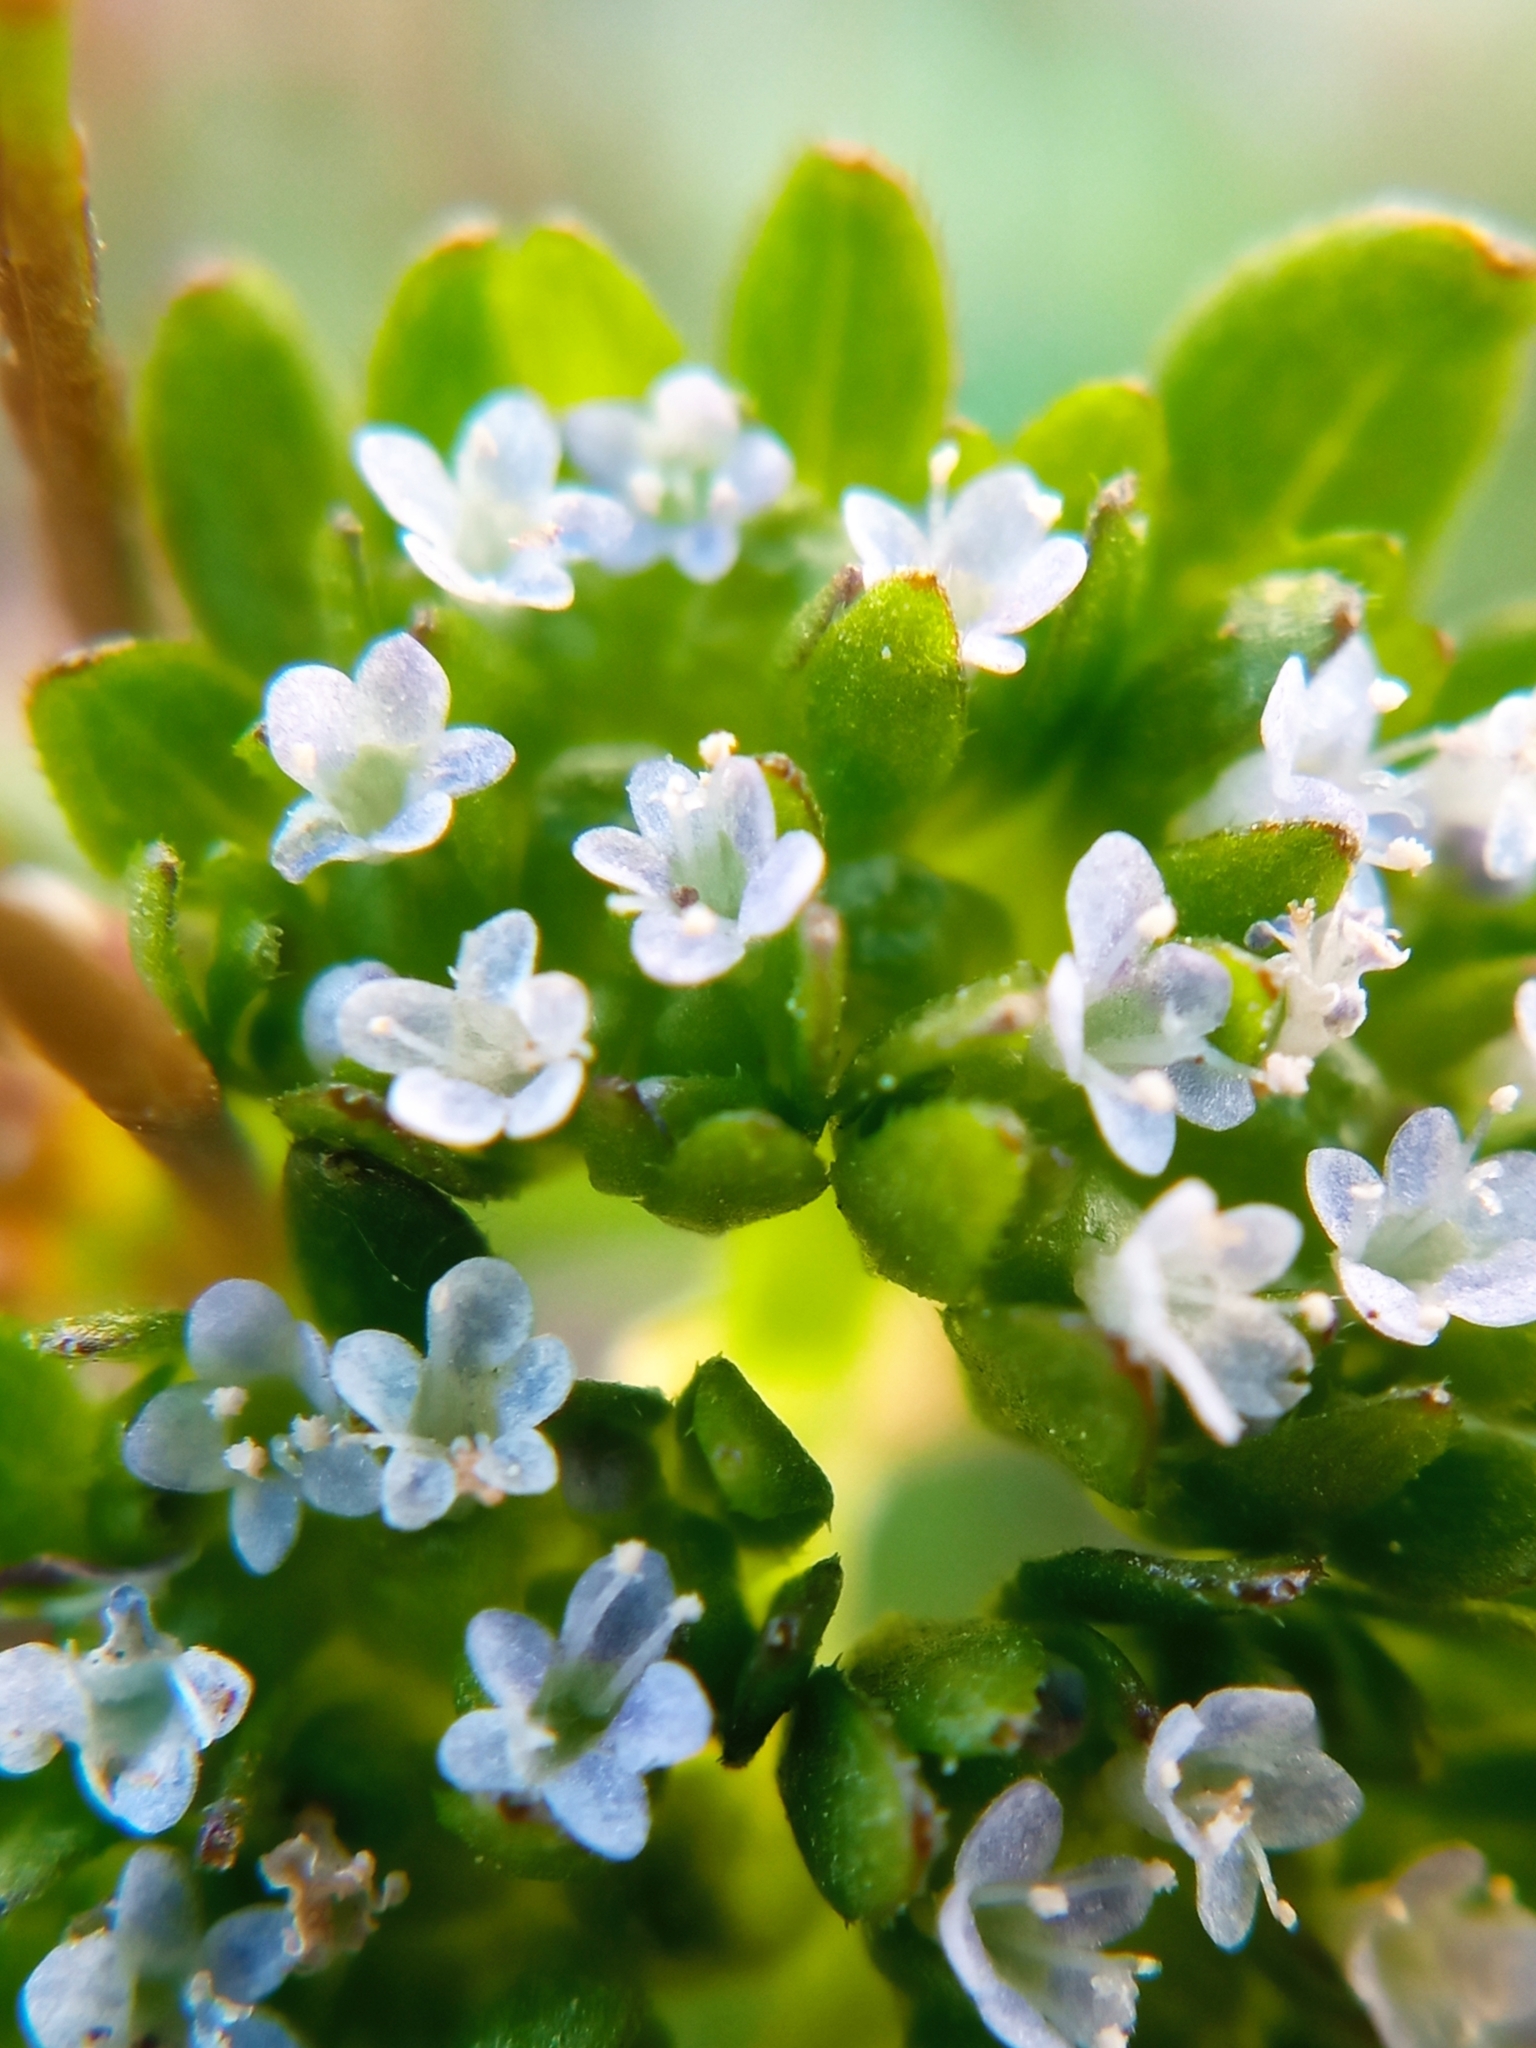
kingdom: Plantae
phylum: Tracheophyta
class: Magnoliopsida
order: Dipsacales
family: Caprifoliaceae
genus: Valerianella
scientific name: Valerianella locusta
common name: Common cornsalad
